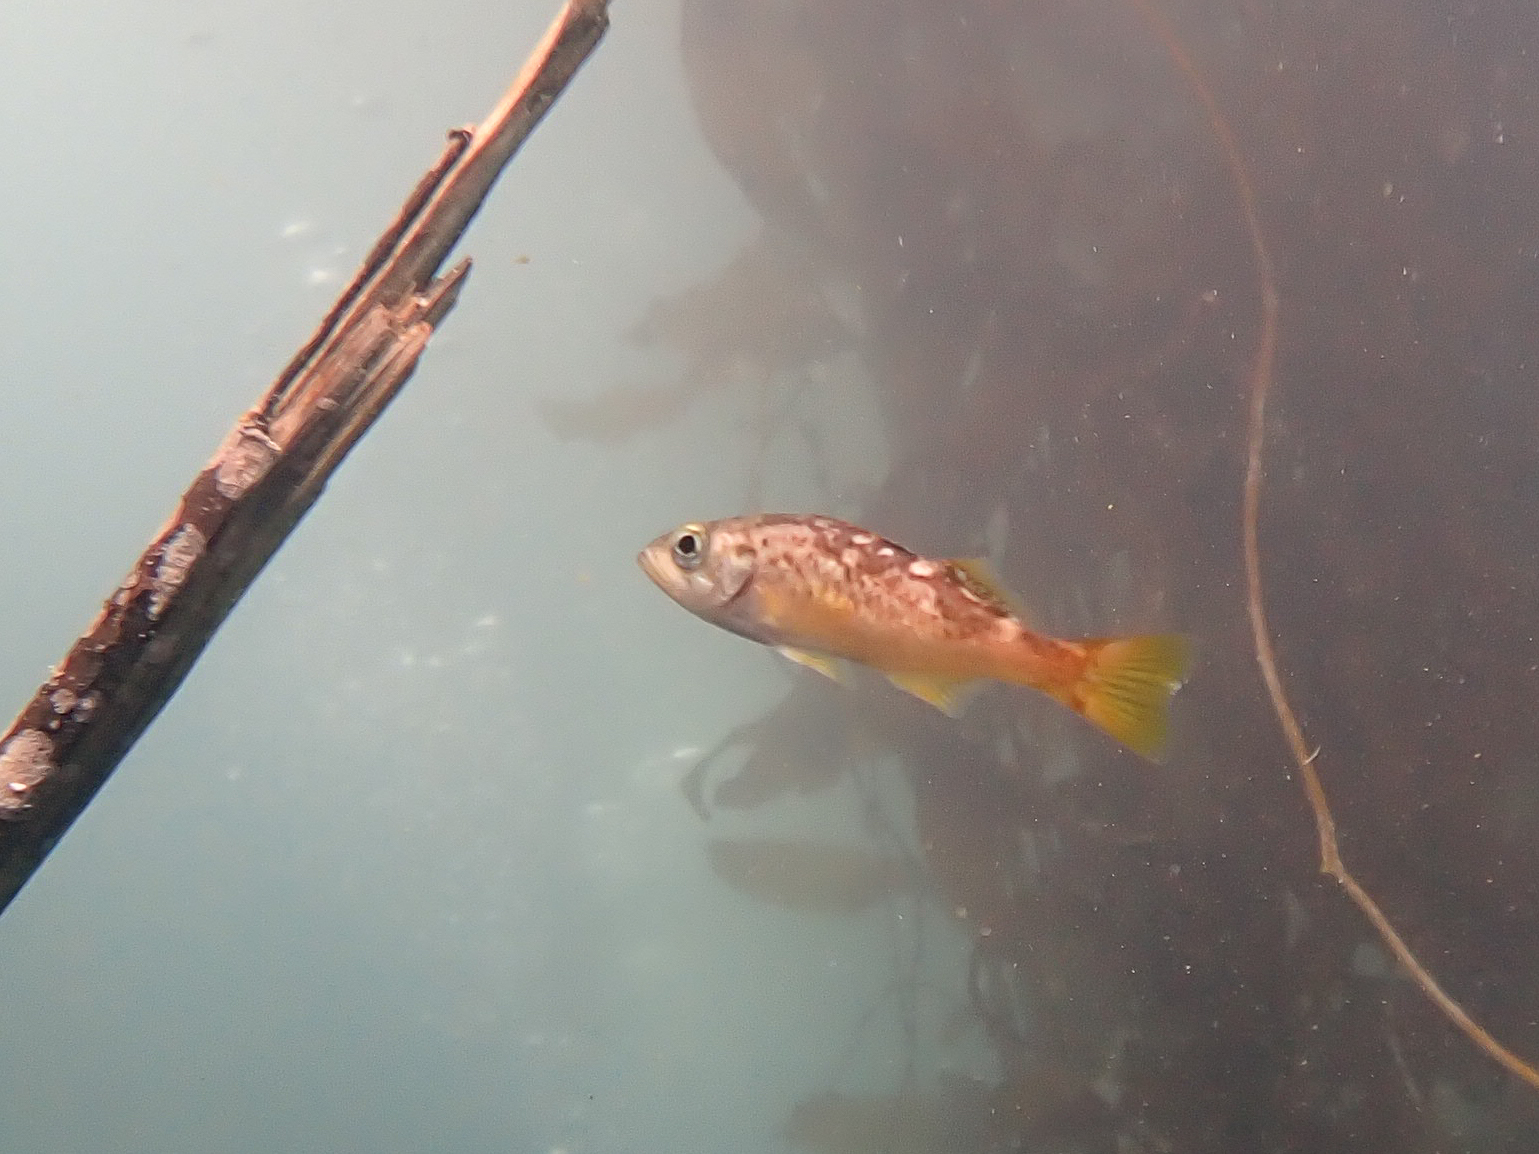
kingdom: Animalia
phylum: Chordata
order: Scorpaeniformes
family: Sebastidae
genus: Sebastes
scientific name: Sebastes serranoides
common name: Olive rockfish
